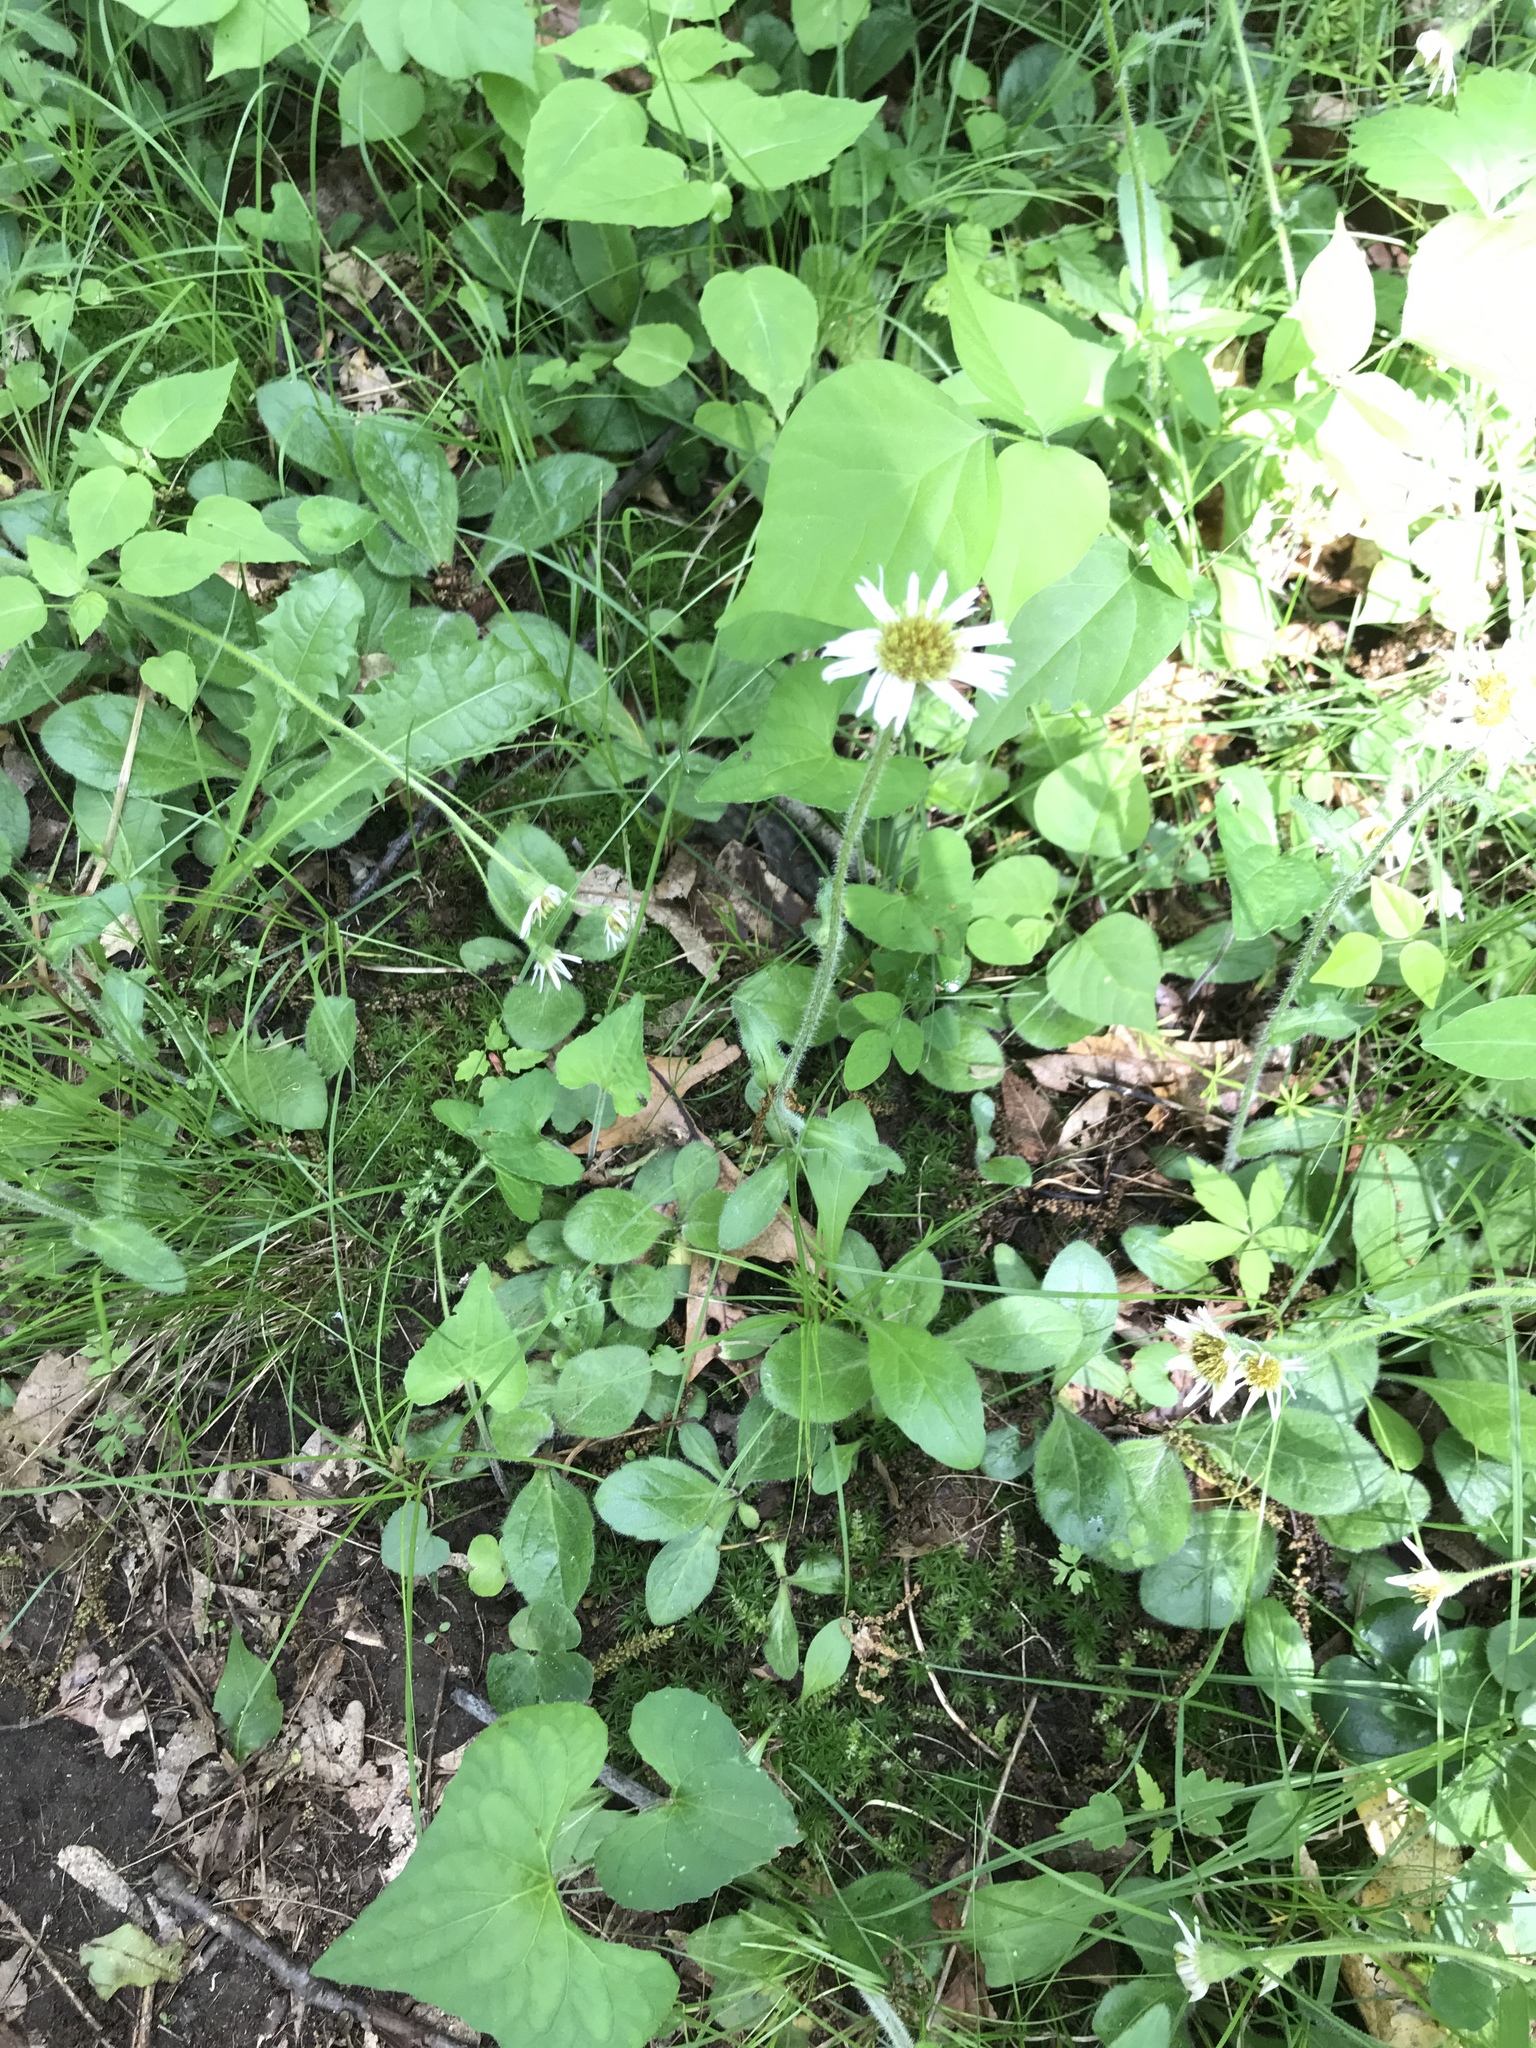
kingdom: Plantae
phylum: Tracheophyta
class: Magnoliopsida
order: Asterales
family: Asteraceae
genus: Erigeron
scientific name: Erigeron pulchellus
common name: Hairy fleabane
